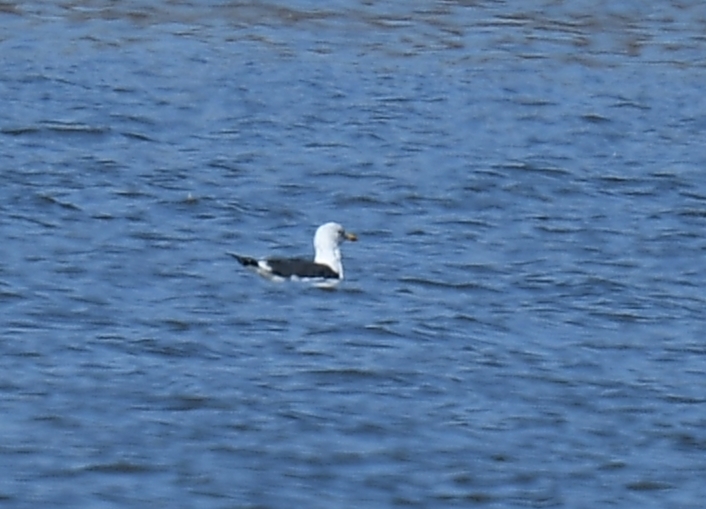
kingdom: Animalia
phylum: Chordata
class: Aves
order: Charadriiformes
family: Laridae
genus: Larus
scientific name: Larus fuscus
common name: Lesser black-backed gull
